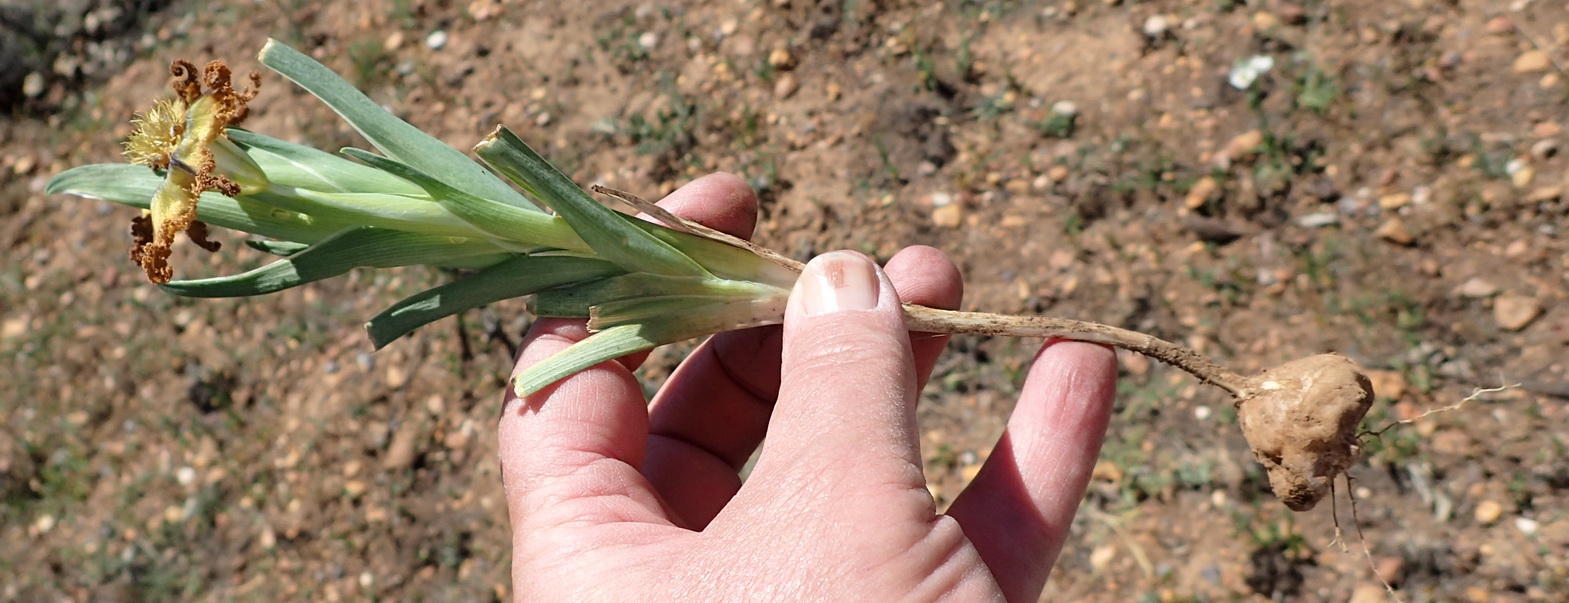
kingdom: Plantae
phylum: Tracheophyta
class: Liliopsida
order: Asparagales
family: Iridaceae
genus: Ferraria
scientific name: Ferraria variabilis
